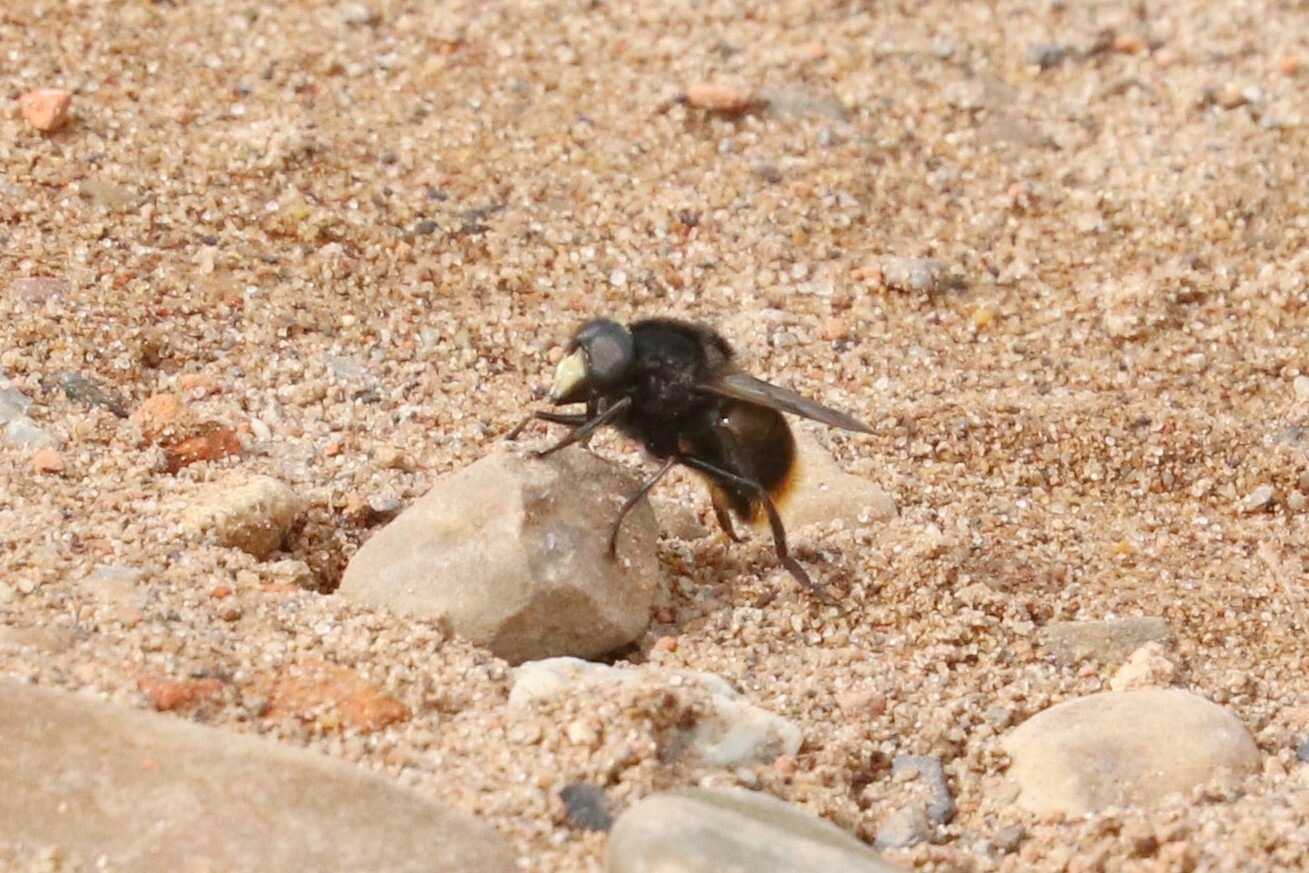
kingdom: Animalia
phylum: Arthropoda
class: Insecta
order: Diptera
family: Syrphidae
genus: Volucella
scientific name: Volucella bombylans
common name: Bumble bee hover fly
